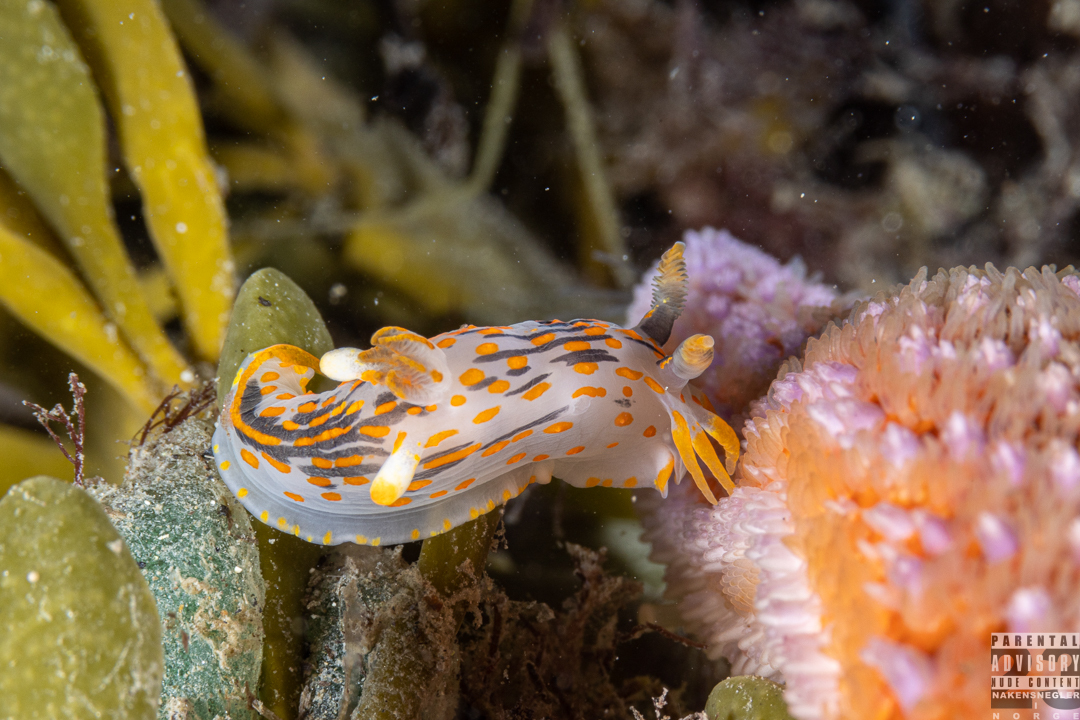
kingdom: Animalia
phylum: Mollusca
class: Gastropoda
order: Nudibranchia
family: Polyceridae
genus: Polycera
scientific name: Polycera quadrilineata
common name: Four-striped polycera
